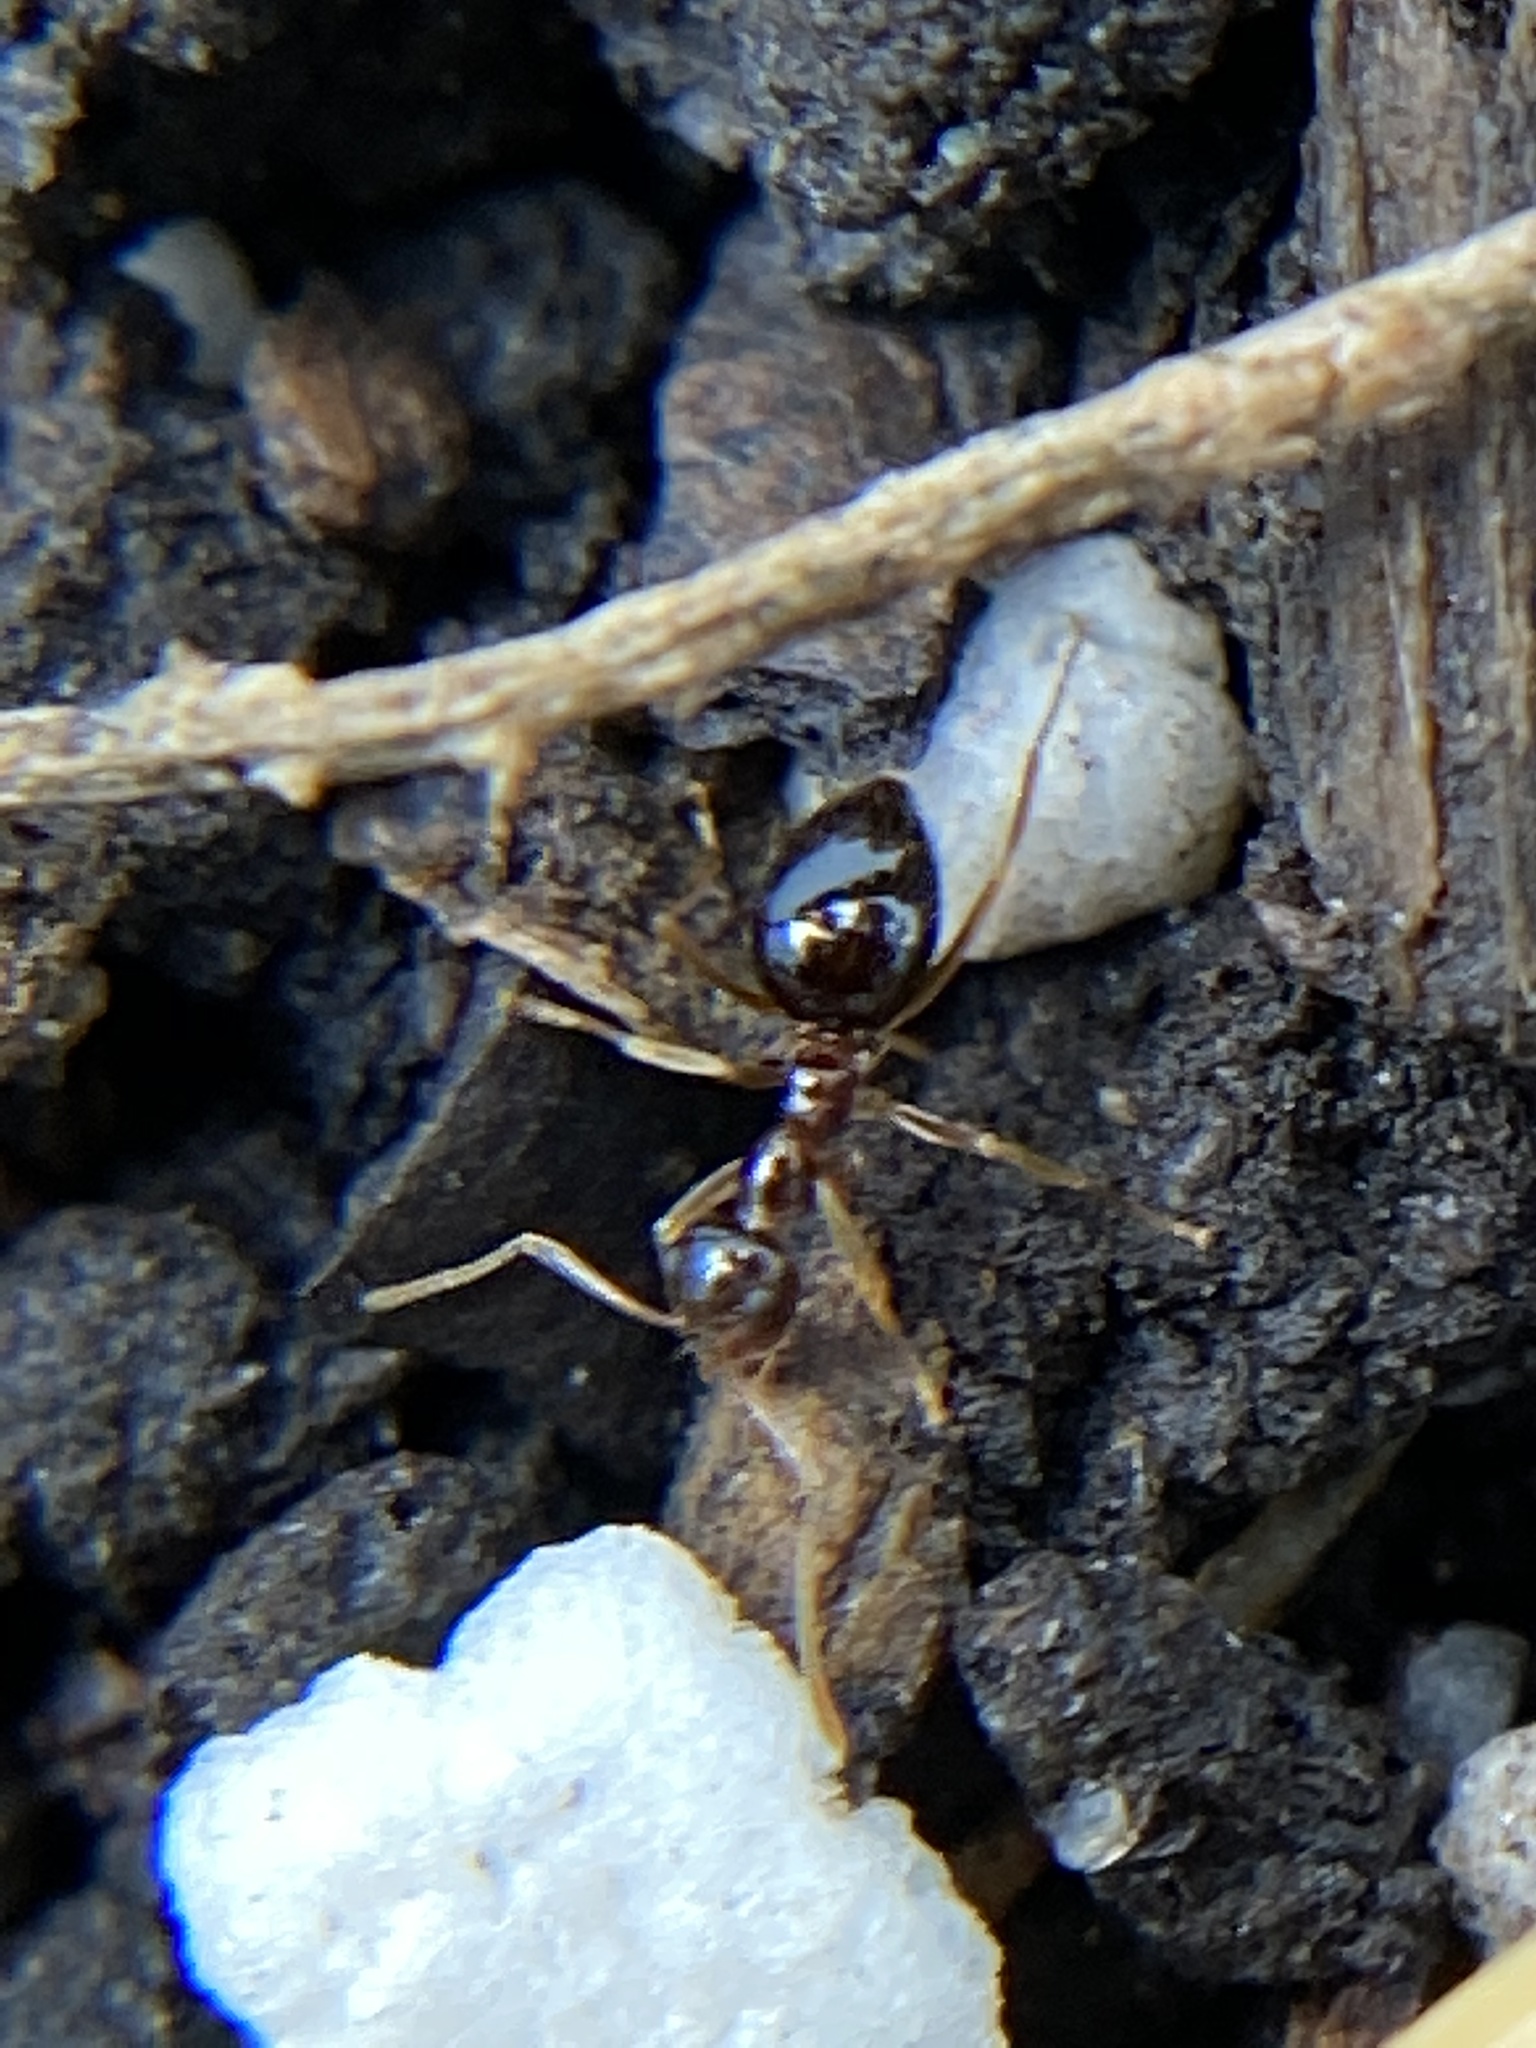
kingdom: Animalia
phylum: Arthropoda
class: Insecta
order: Hymenoptera
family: Formicidae
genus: Prenolepis
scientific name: Prenolepis imparis
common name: Small honey ant
